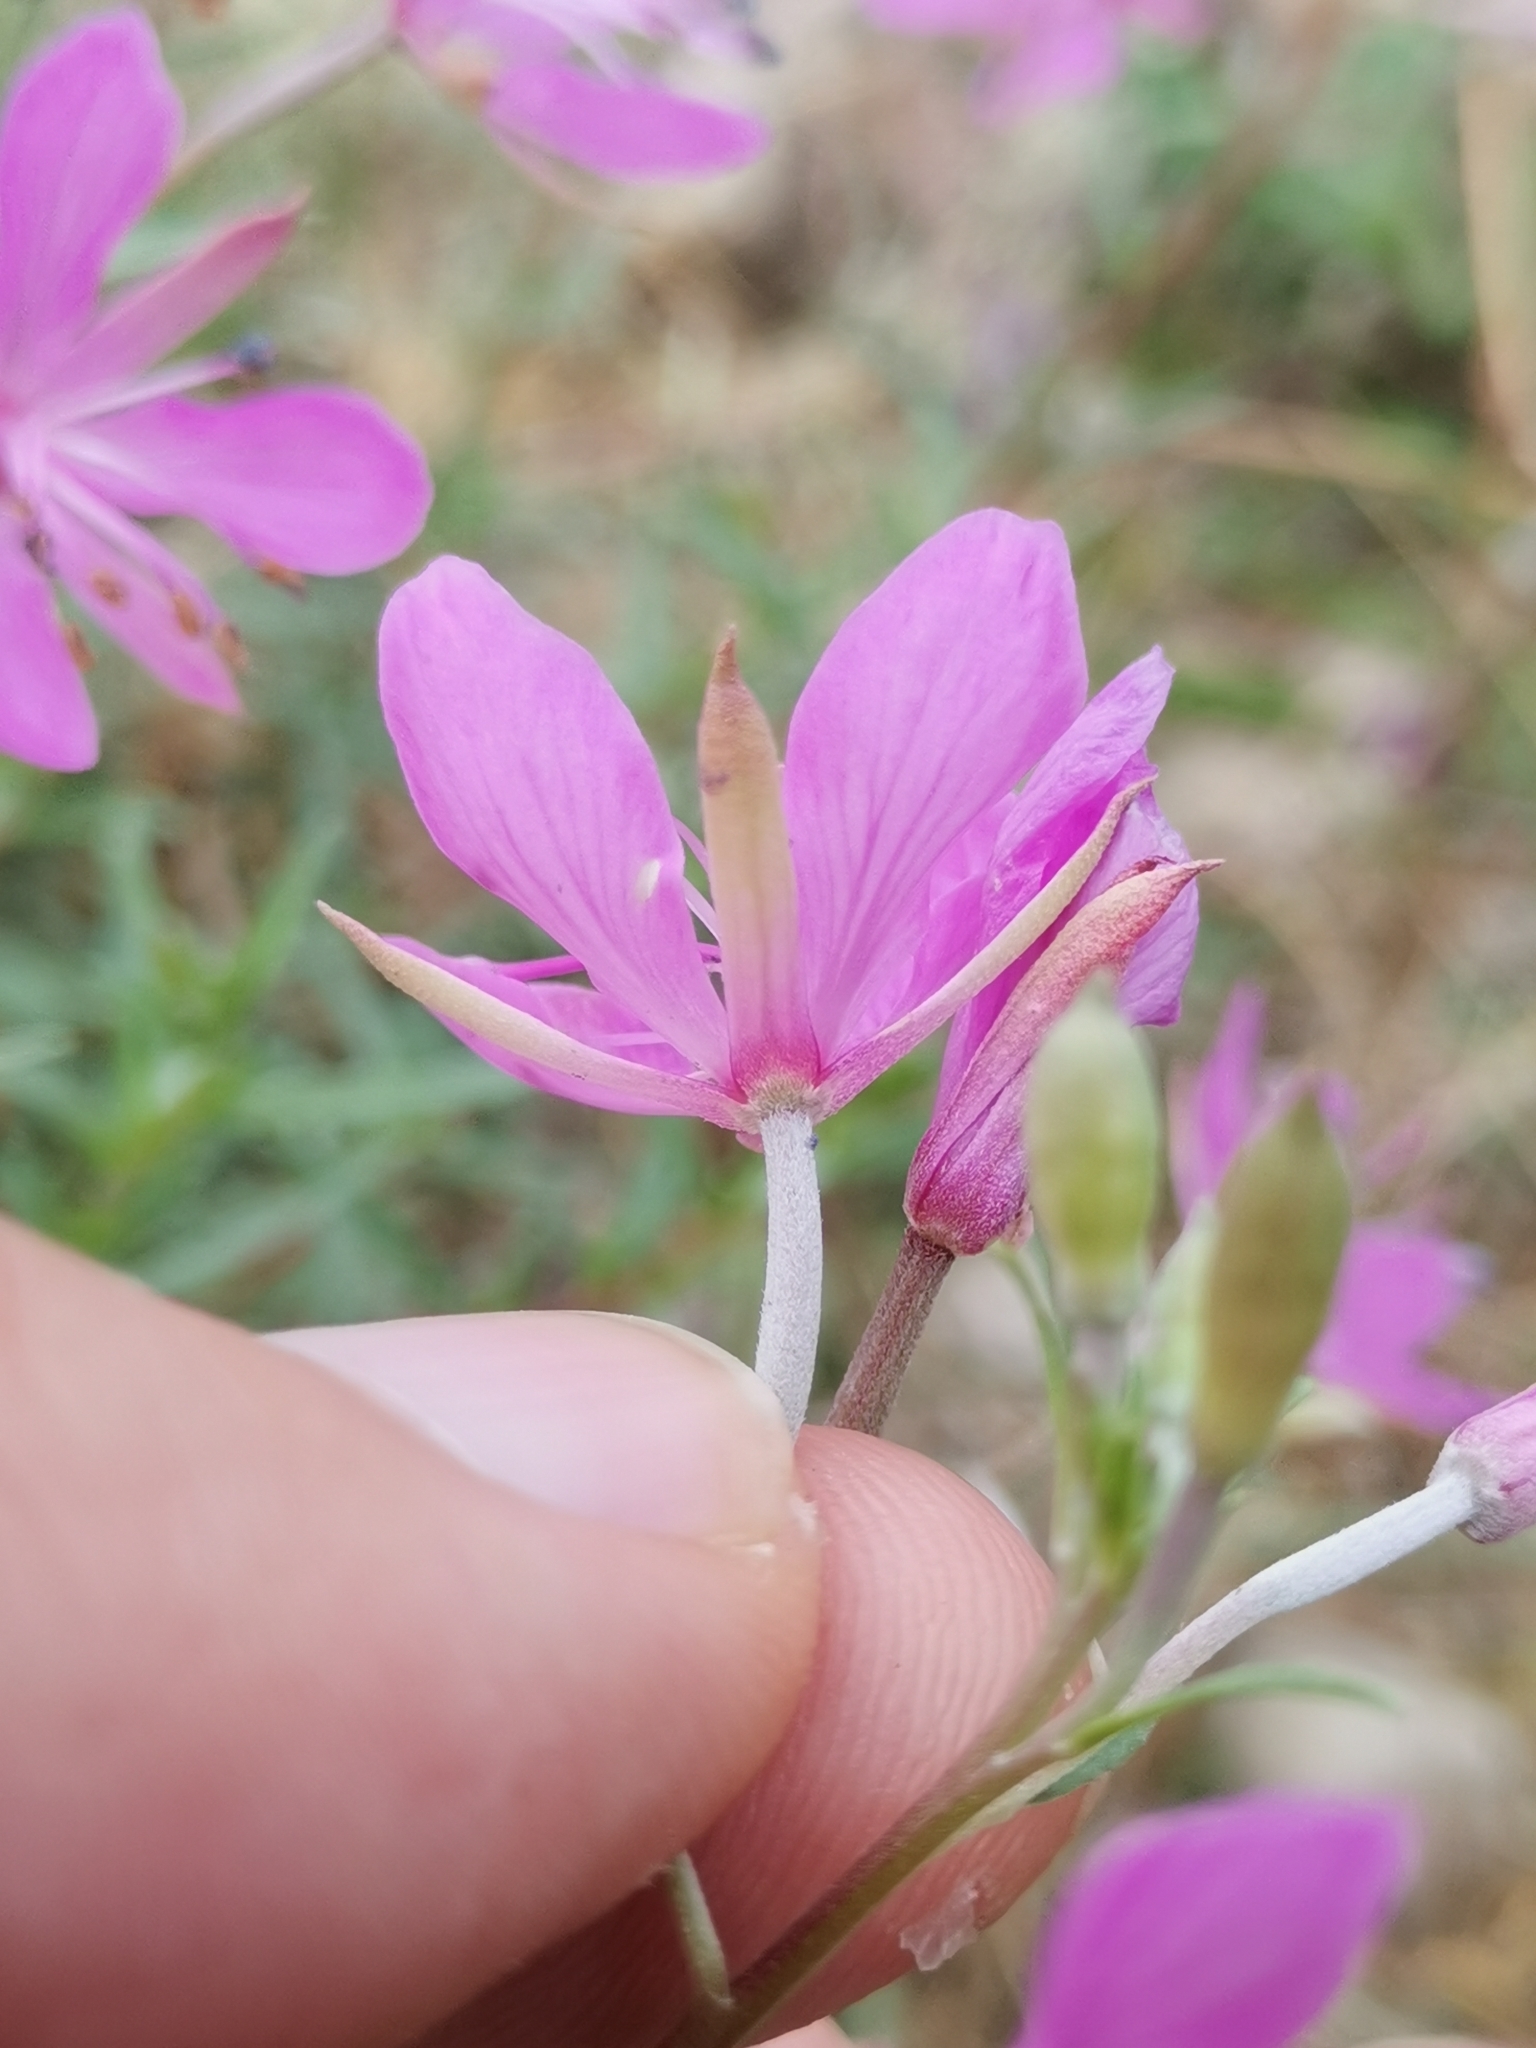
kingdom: Plantae
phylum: Tracheophyta
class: Magnoliopsida
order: Myrtales
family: Onagraceae
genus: Chamaenerion
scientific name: Chamaenerion dodonaei
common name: Rosemary-leaved willowherb
